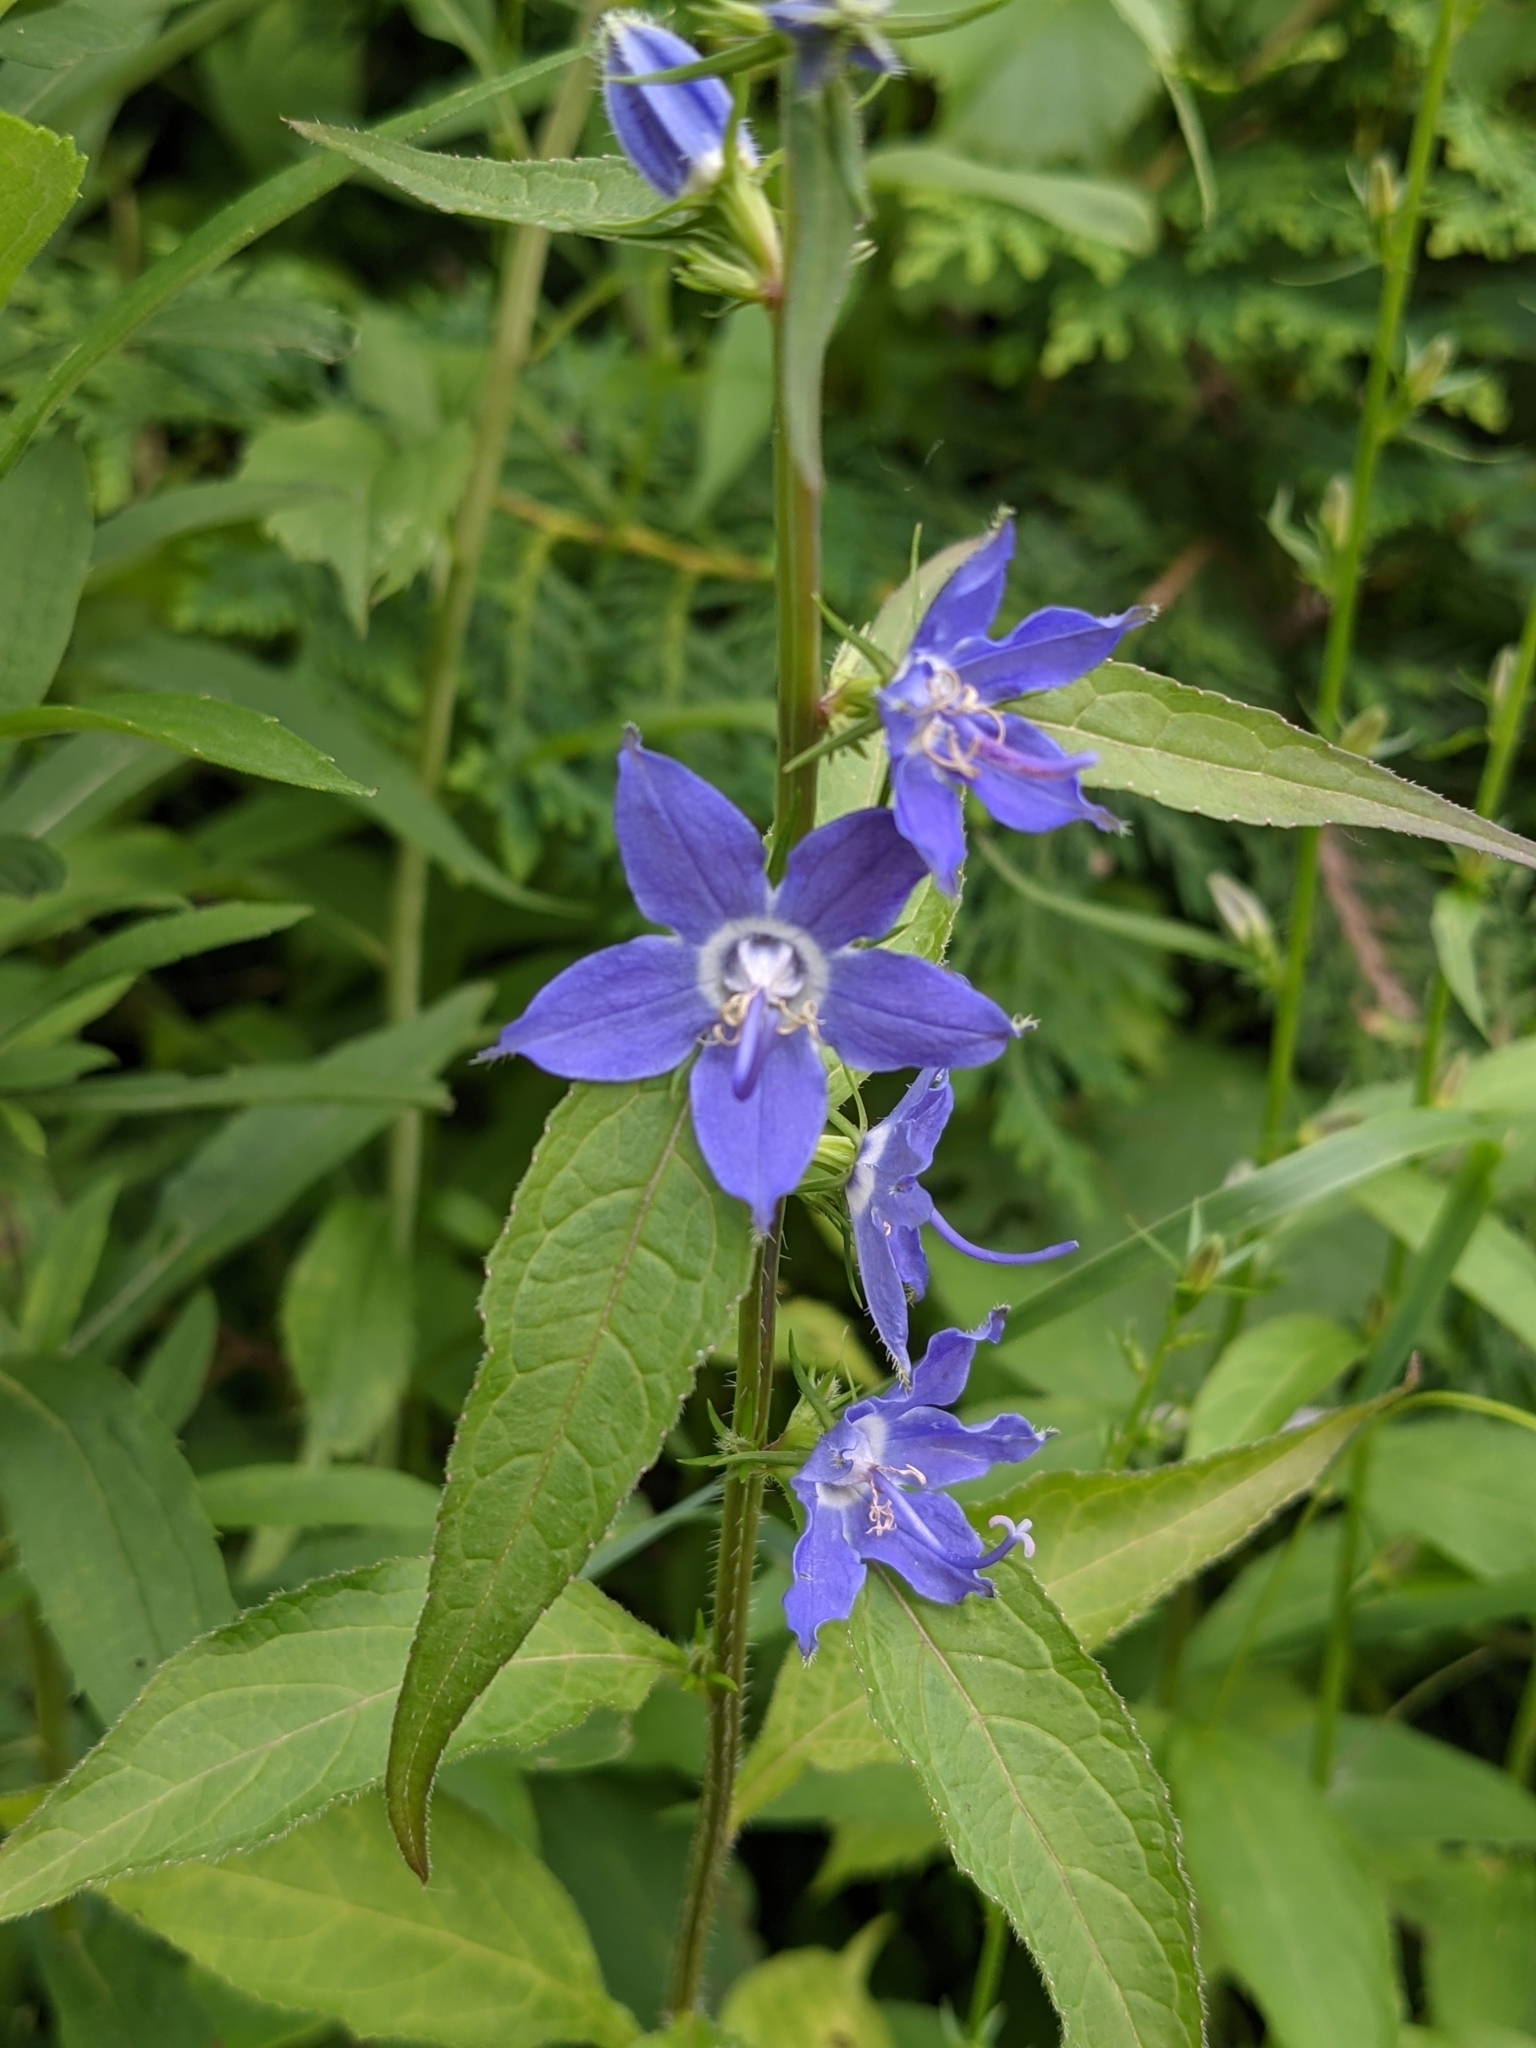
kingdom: Plantae
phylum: Tracheophyta
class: Magnoliopsida
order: Asterales
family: Campanulaceae
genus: Campanulastrum
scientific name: Campanulastrum americanum
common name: American bellflower
